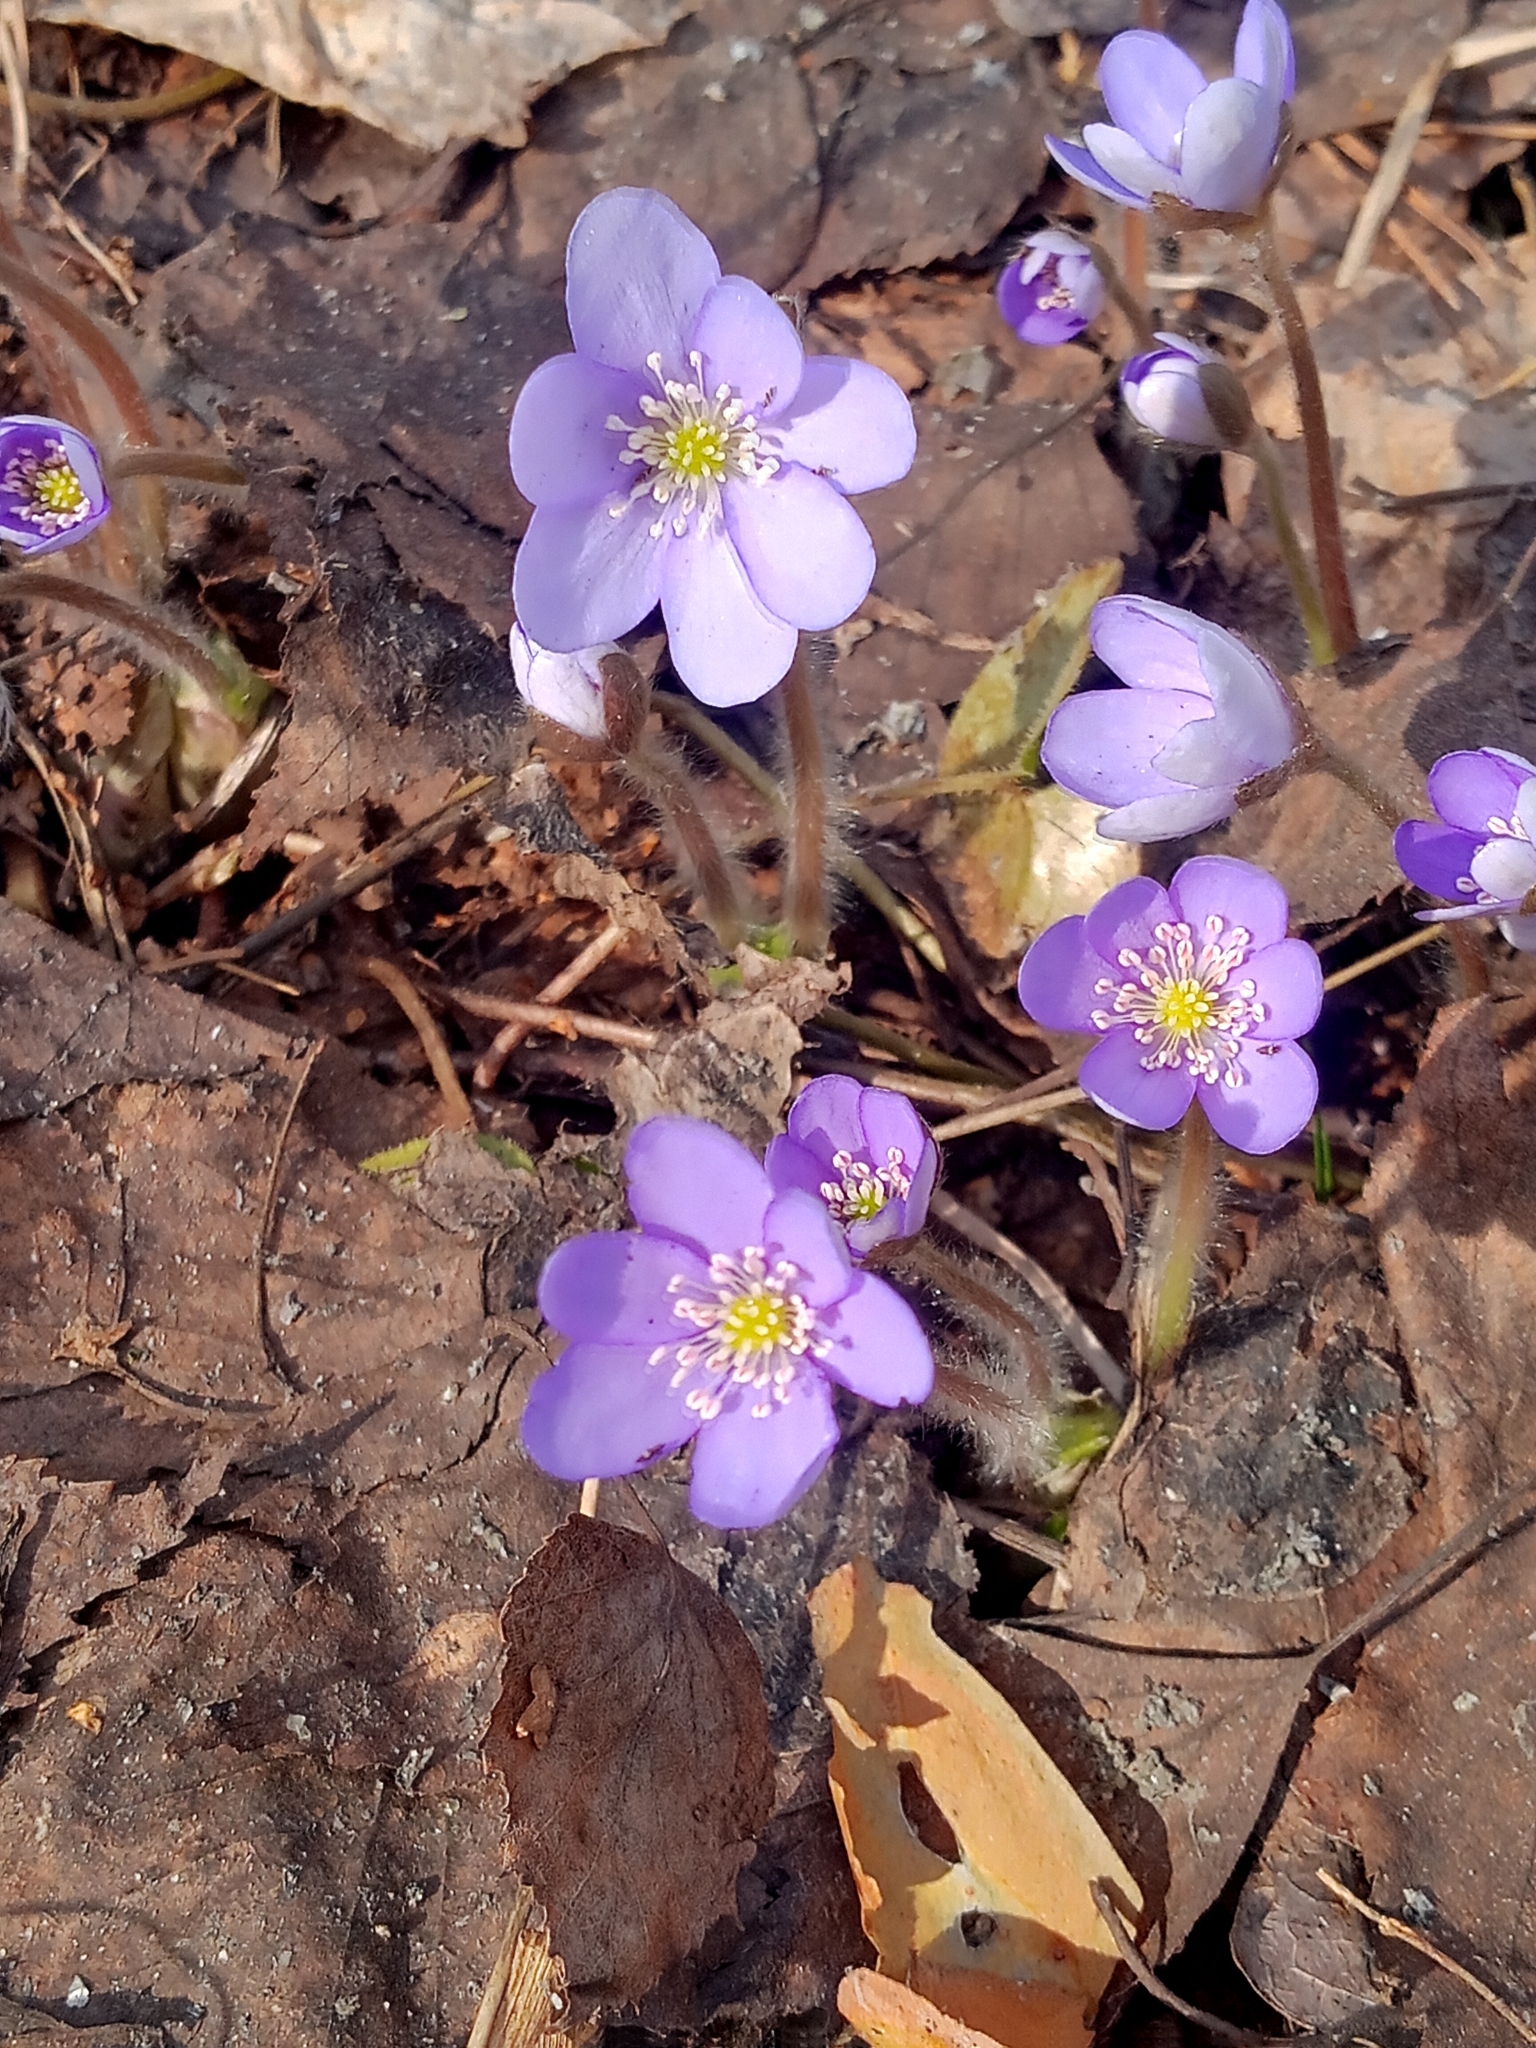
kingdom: Plantae
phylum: Tracheophyta
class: Magnoliopsida
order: Ranunculales
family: Ranunculaceae
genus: Hepatica
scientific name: Hepatica nobilis
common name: Liverleaf
